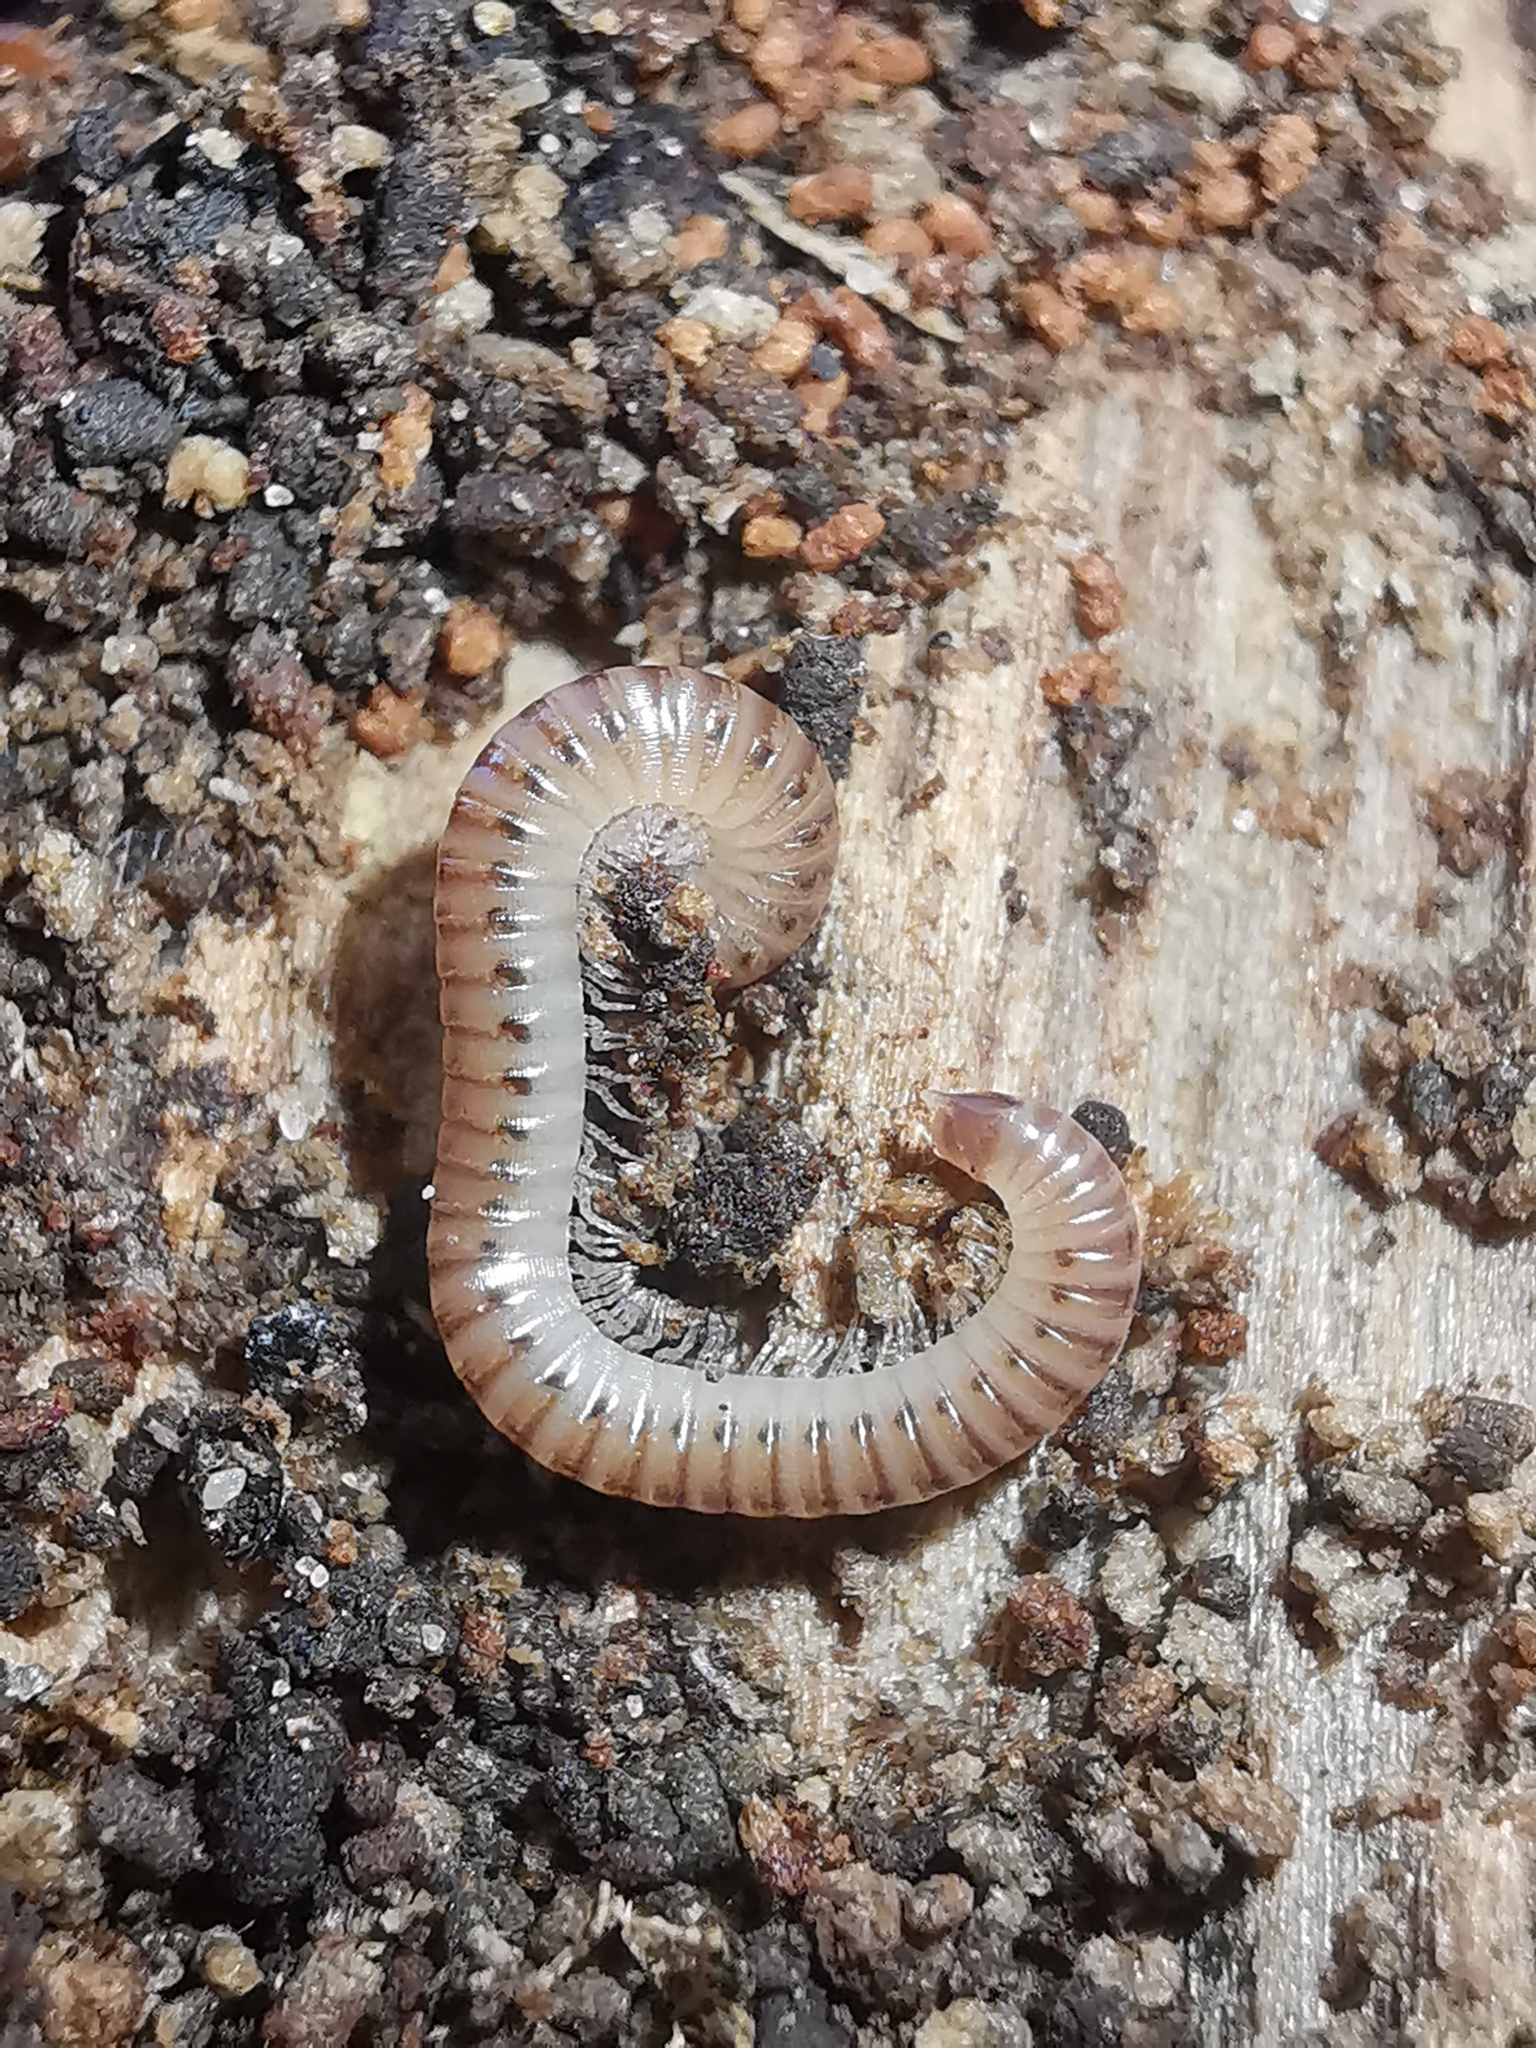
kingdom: Animalia
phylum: Arthropoda
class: Diplopoda
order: Julida
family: Julidae
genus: Cylindroiulus
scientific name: Cylindroiulus punctatus
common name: Blunt-tailed millipede
